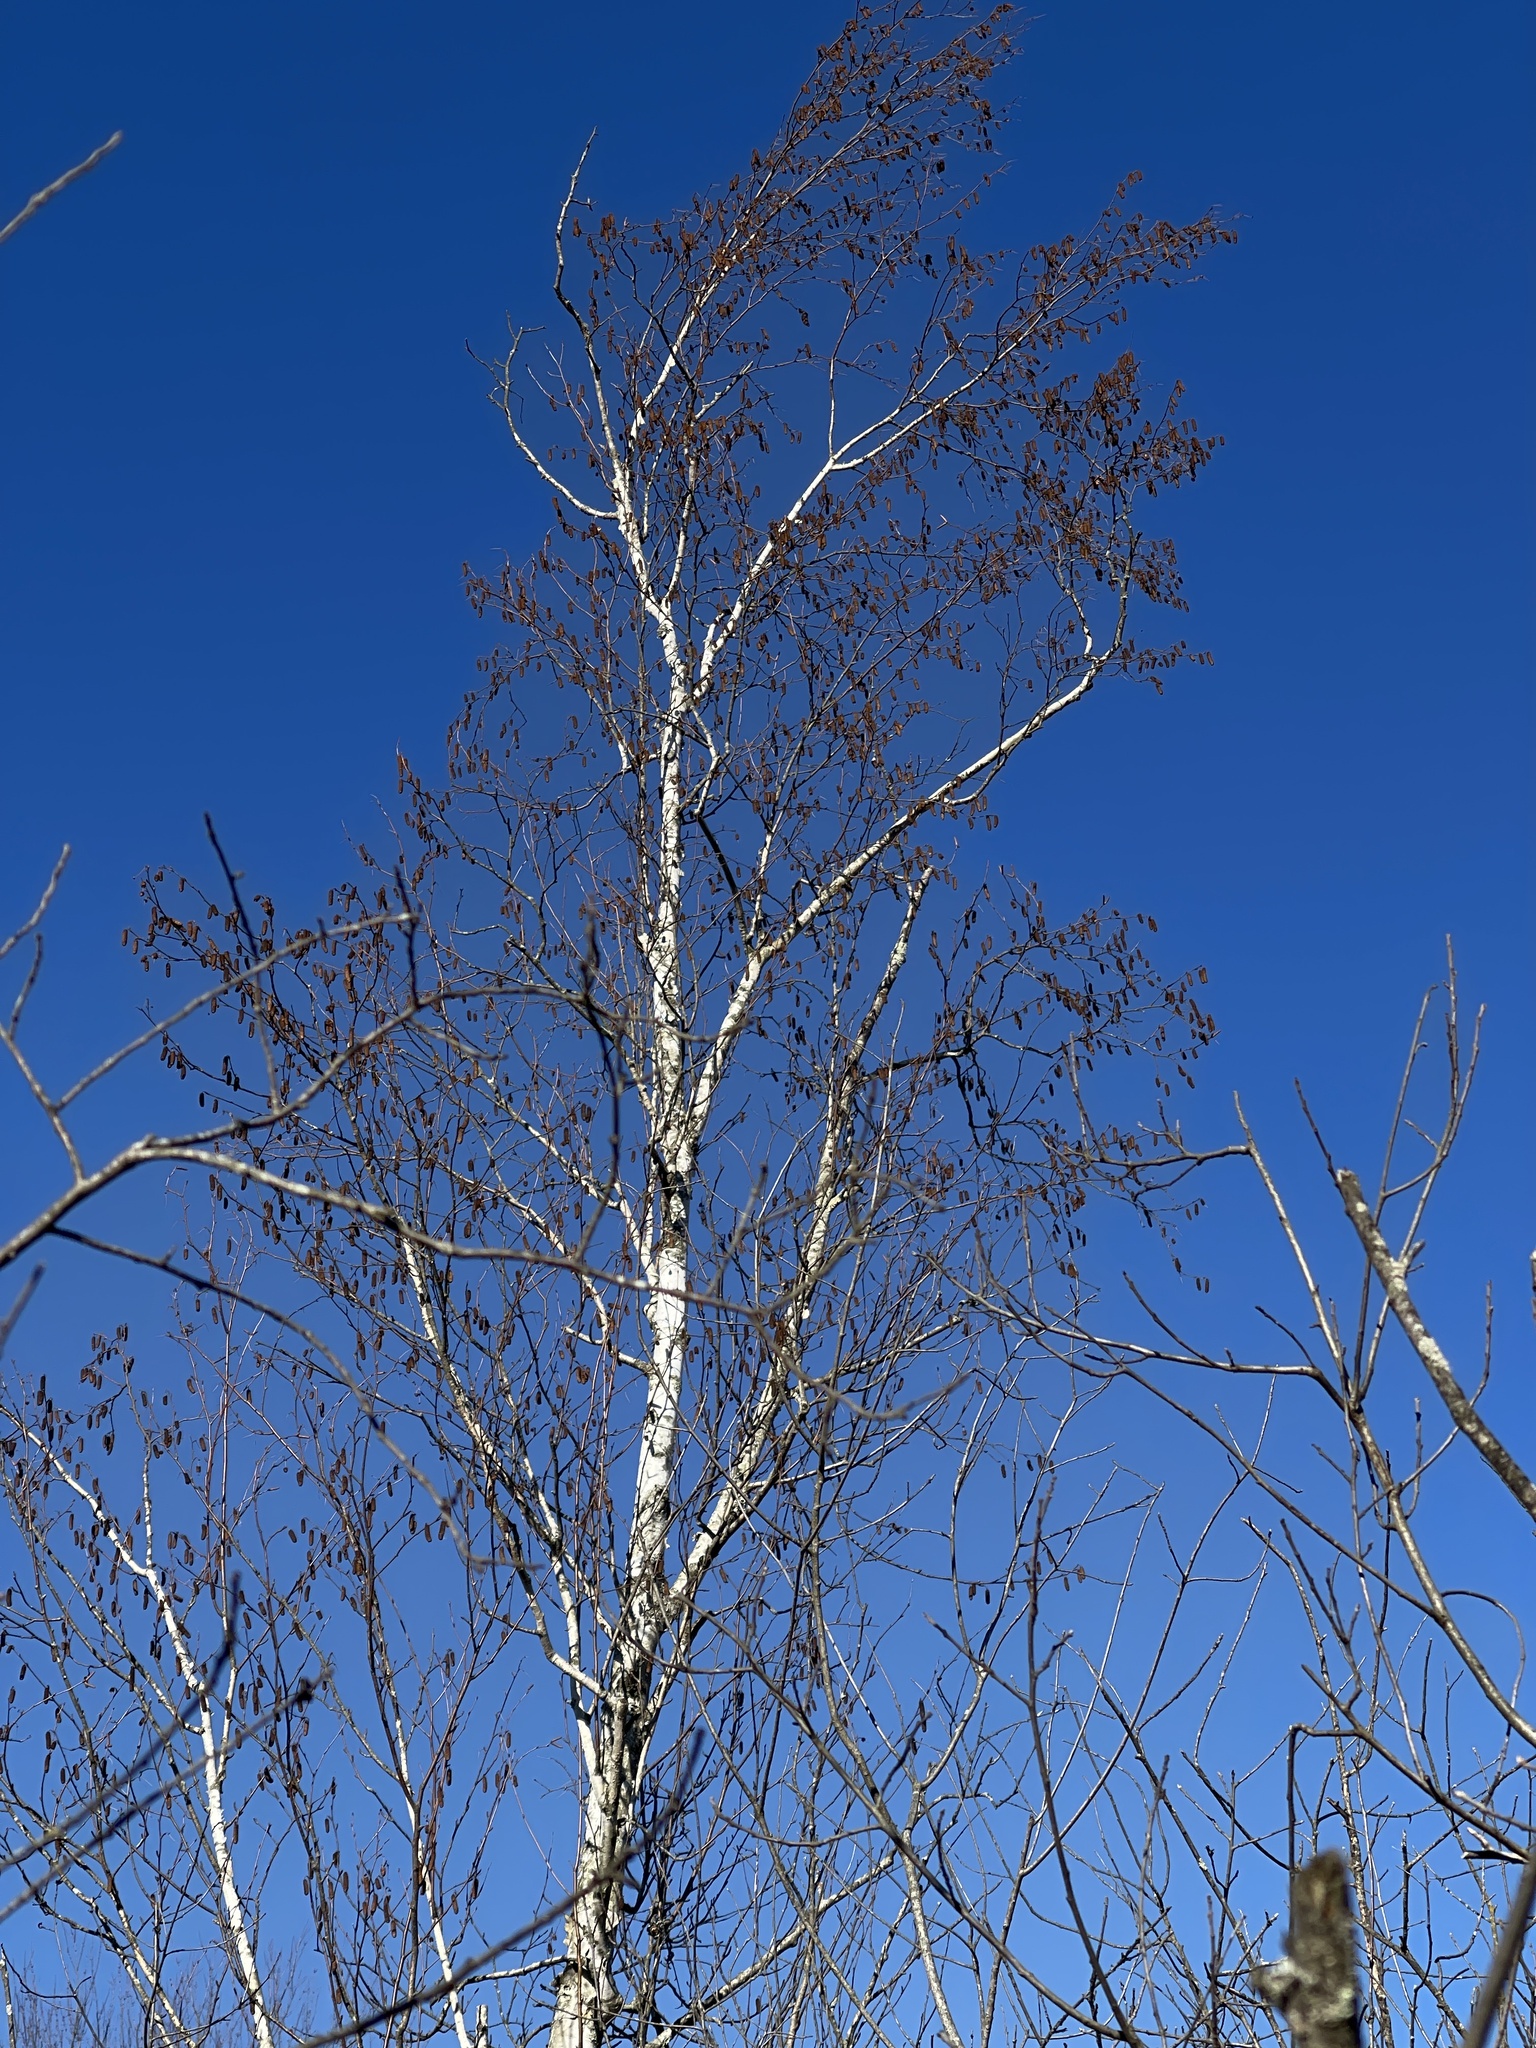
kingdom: Plantae
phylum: Tracheophyta
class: Magnoliopsida
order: Fagales
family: Betulaceae
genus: Betula
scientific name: Betula papyrifera
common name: Paper birch
